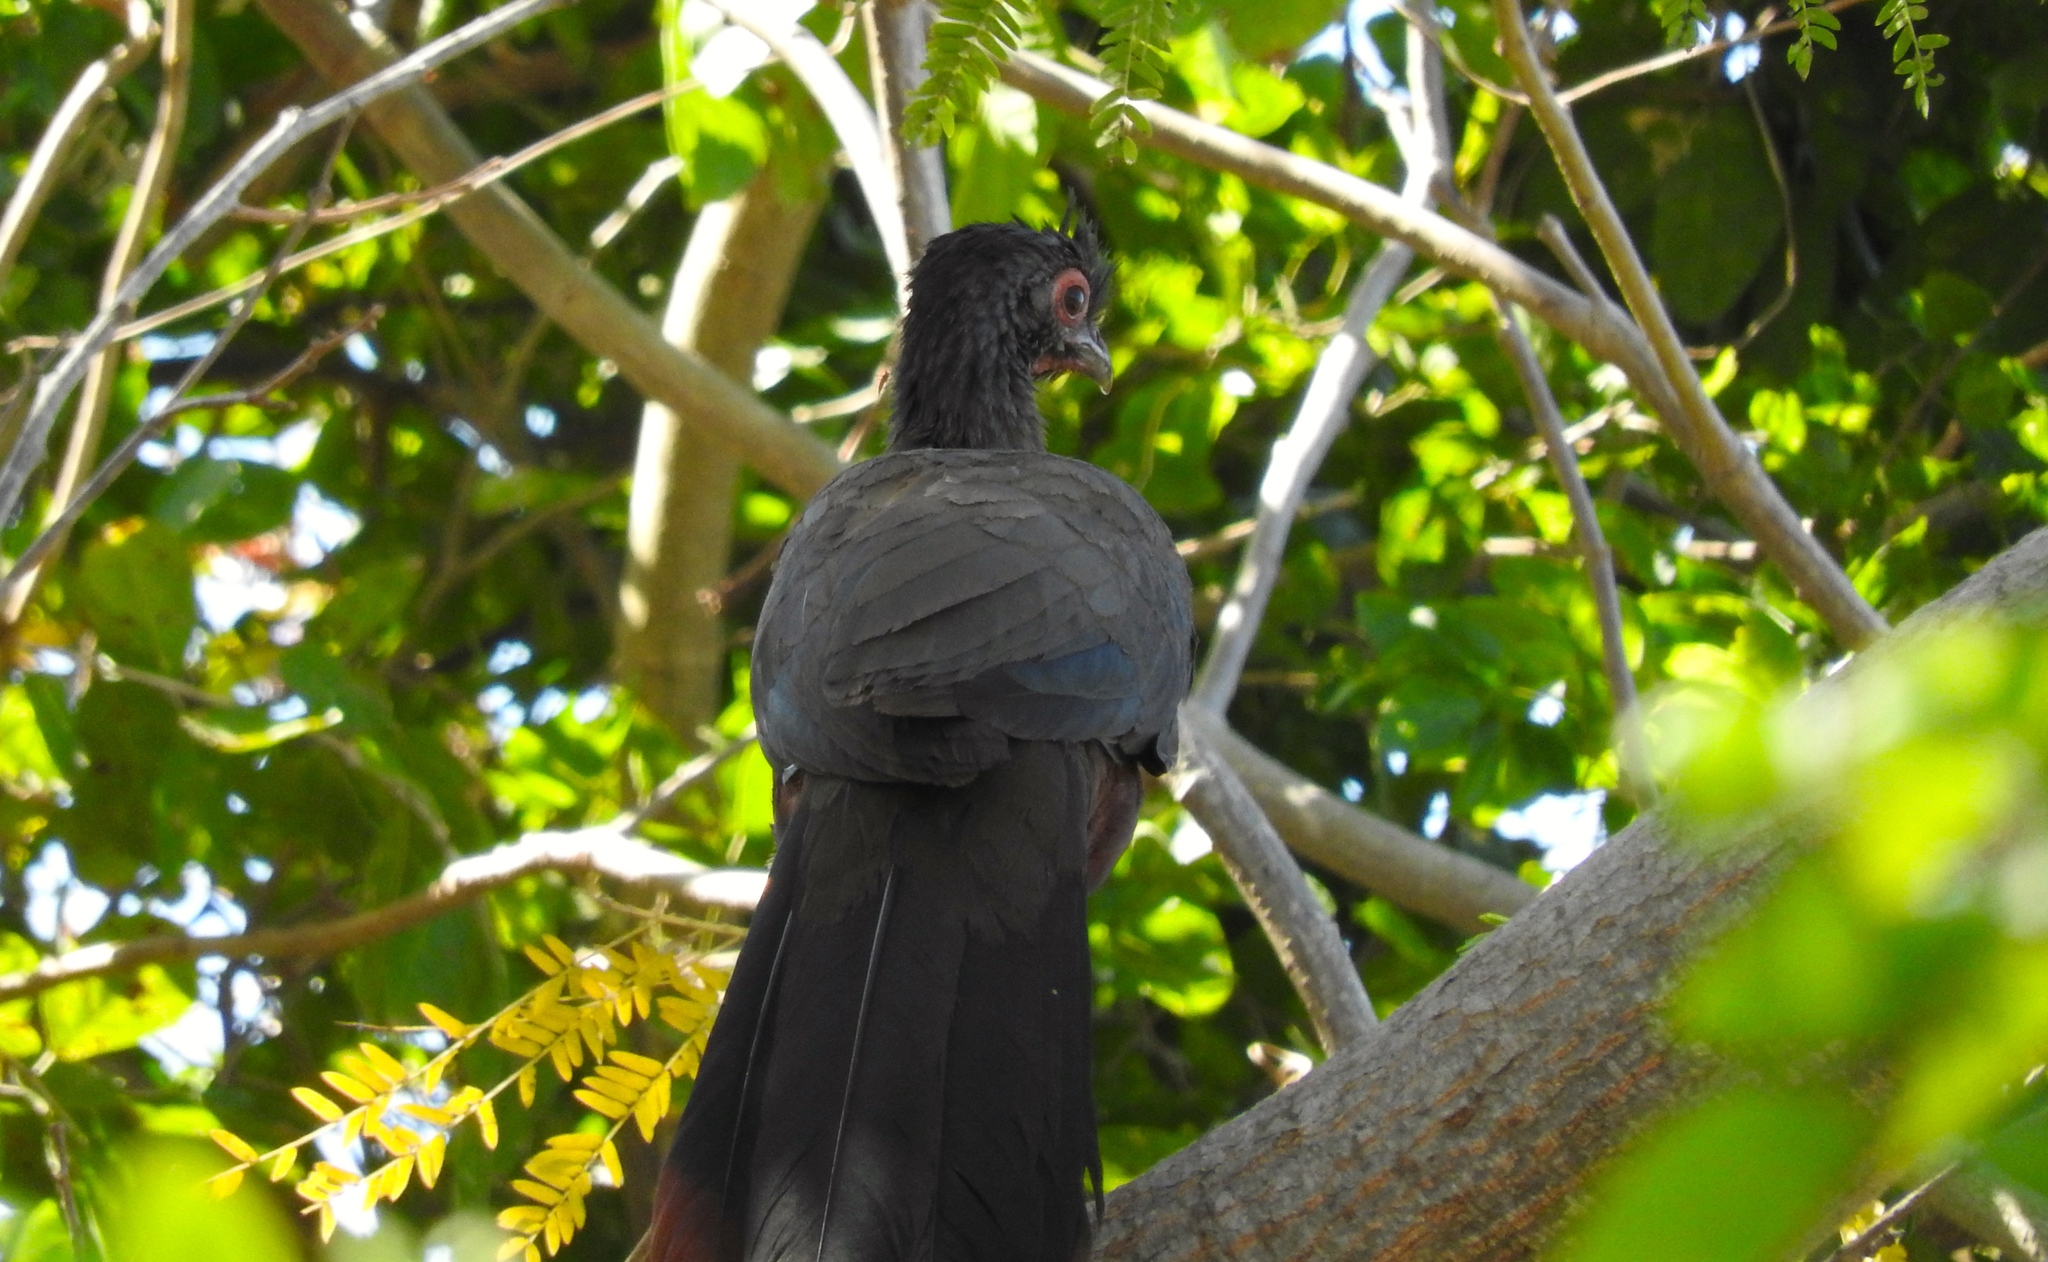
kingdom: Animalia
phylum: Chordata
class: Aves
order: Galliformes
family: Cracidae
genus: Ortalis
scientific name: Ortalis wagleri
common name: Rufous-bellied chachalaca
